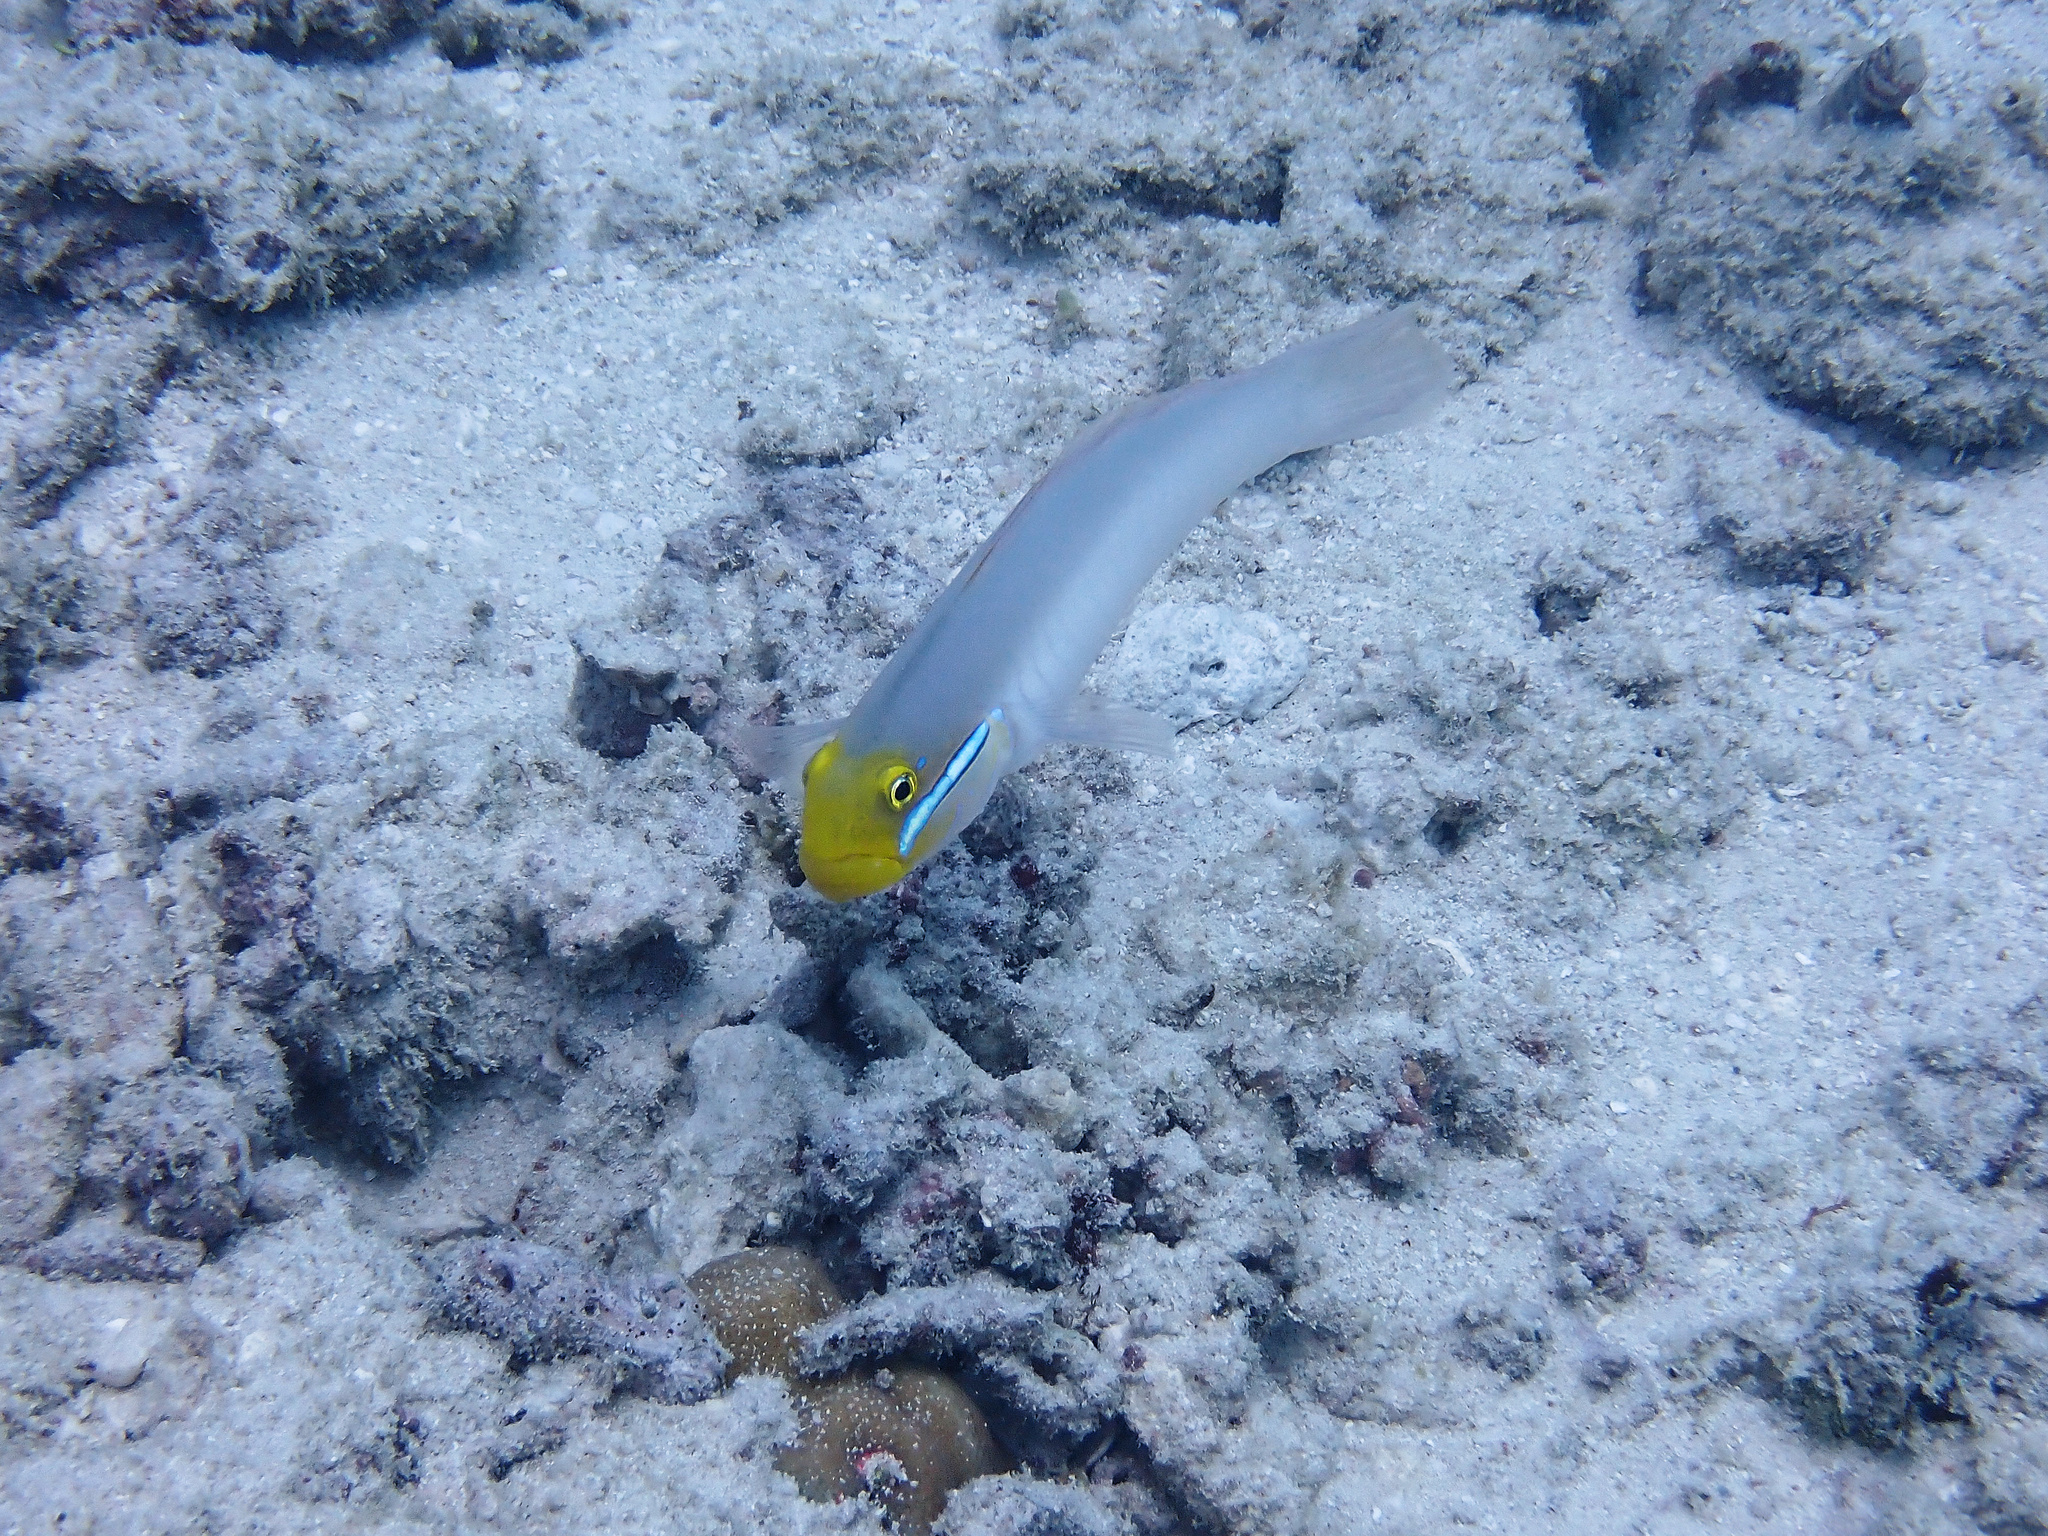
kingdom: Animalia
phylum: Chordata
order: Perciformes
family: Gobiidae
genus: Valenciennea
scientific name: Valenciennea strigata
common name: Blueband goby
